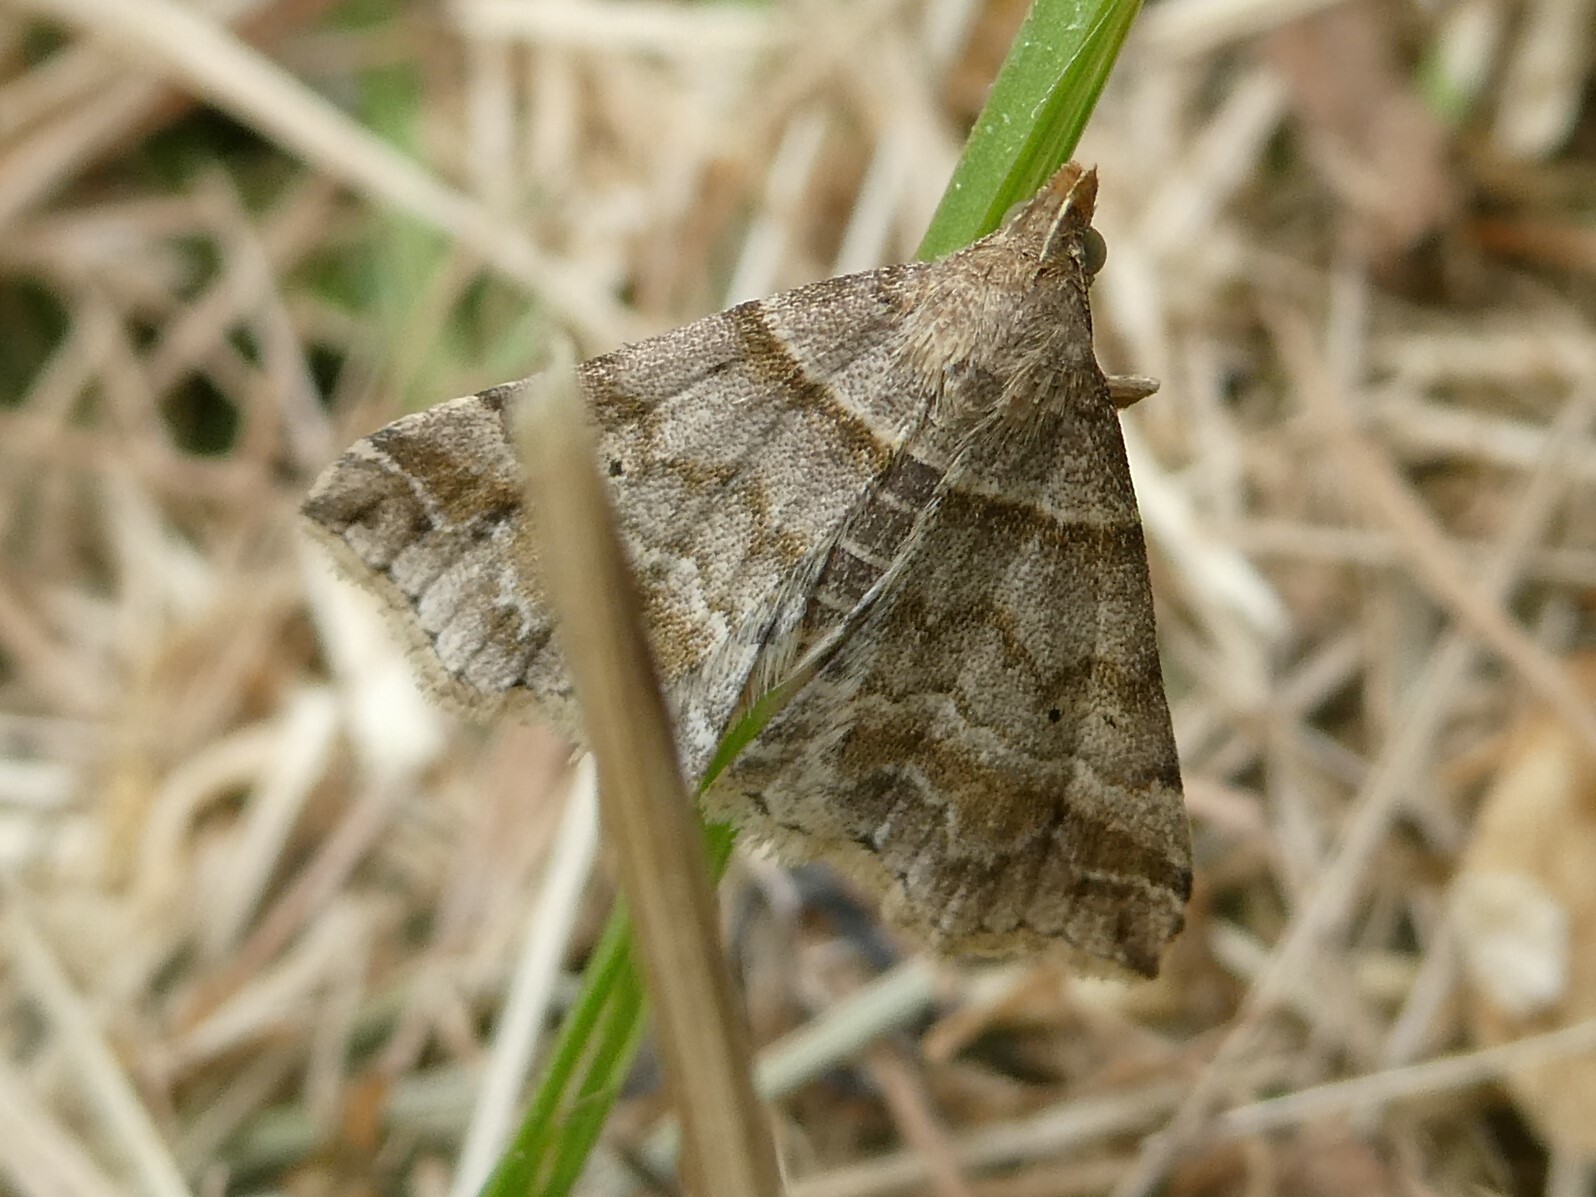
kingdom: Animalia
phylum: Arthropoda
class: Insecta
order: Lepidoptera
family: Erebidae
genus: Phaeolita
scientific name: Phaeolita pyramusalis
